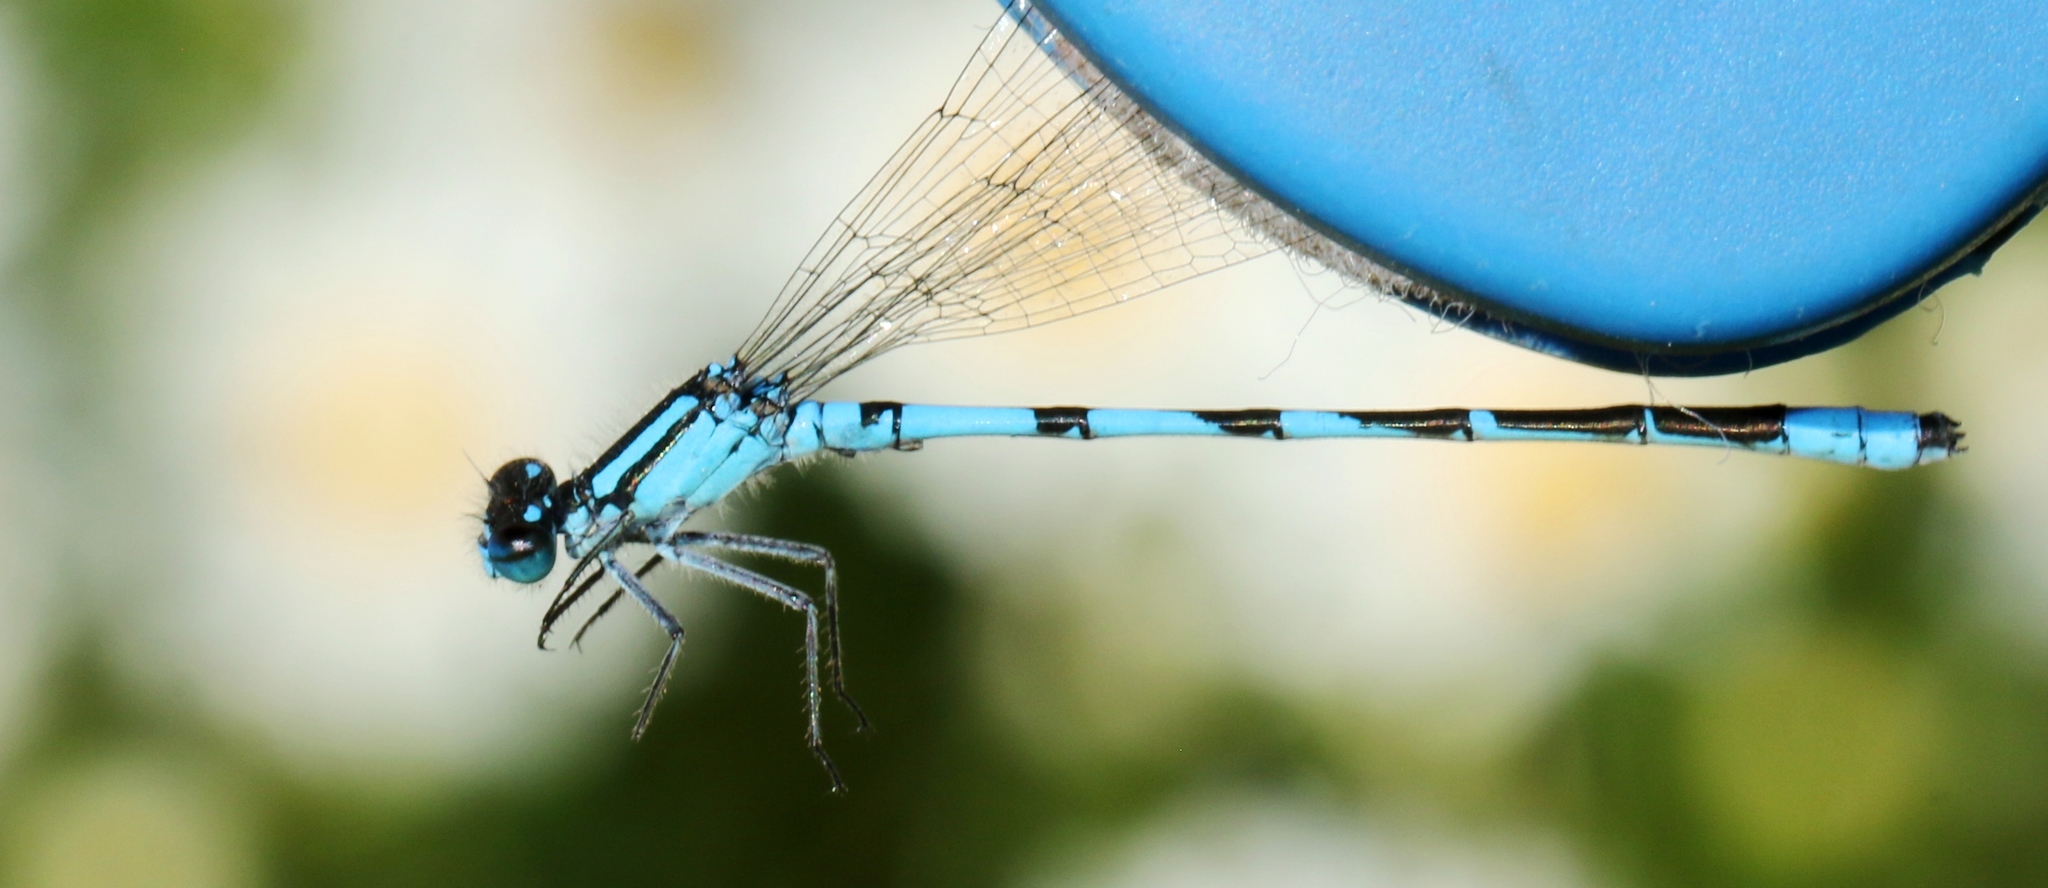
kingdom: Animalia
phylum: Arthropoda
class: Insecta
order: Odonata
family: Coenagrionidae
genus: Enallagma
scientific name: Enallagma hageni
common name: Hagen's bluet
